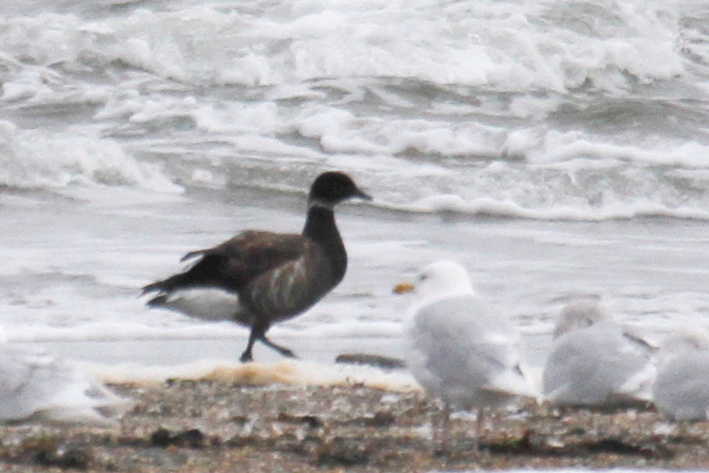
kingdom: Animalia
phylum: Chordata
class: Aves
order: Anseriformes
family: Anatidae
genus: Branta
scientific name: Branta bernicla
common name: Brant goose
